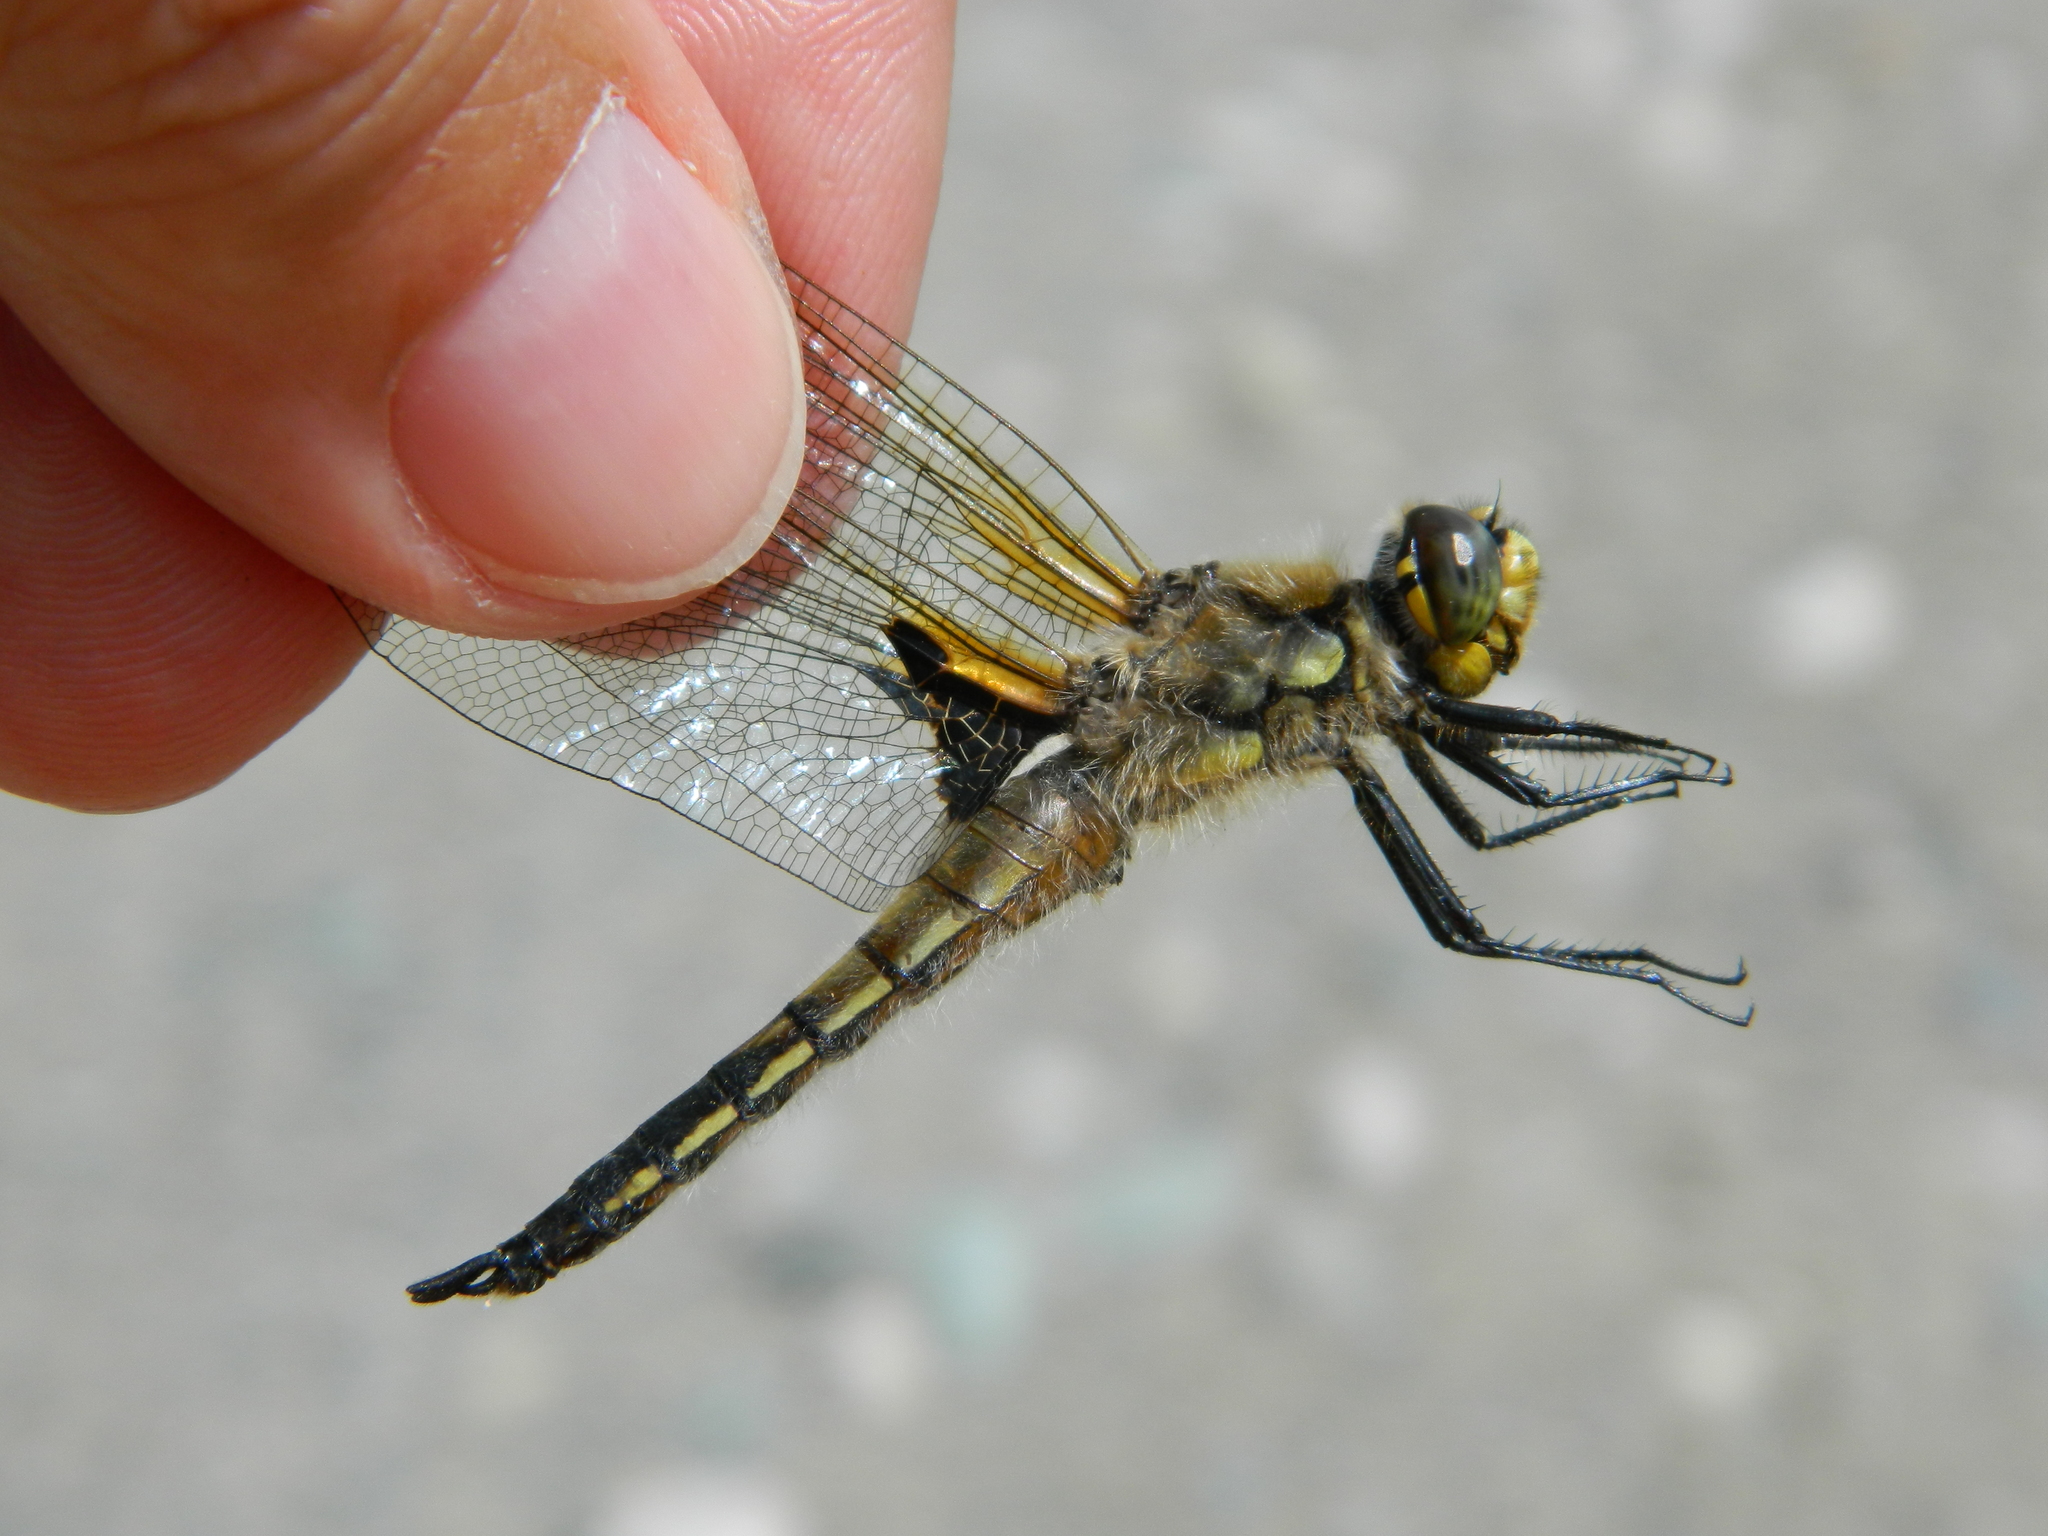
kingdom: Animalia
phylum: Arthropoda
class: Insecta
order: Odonata
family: Libellulidae
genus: Libellula
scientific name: Libellula quadrimaculata
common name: Four-spotted chaser
